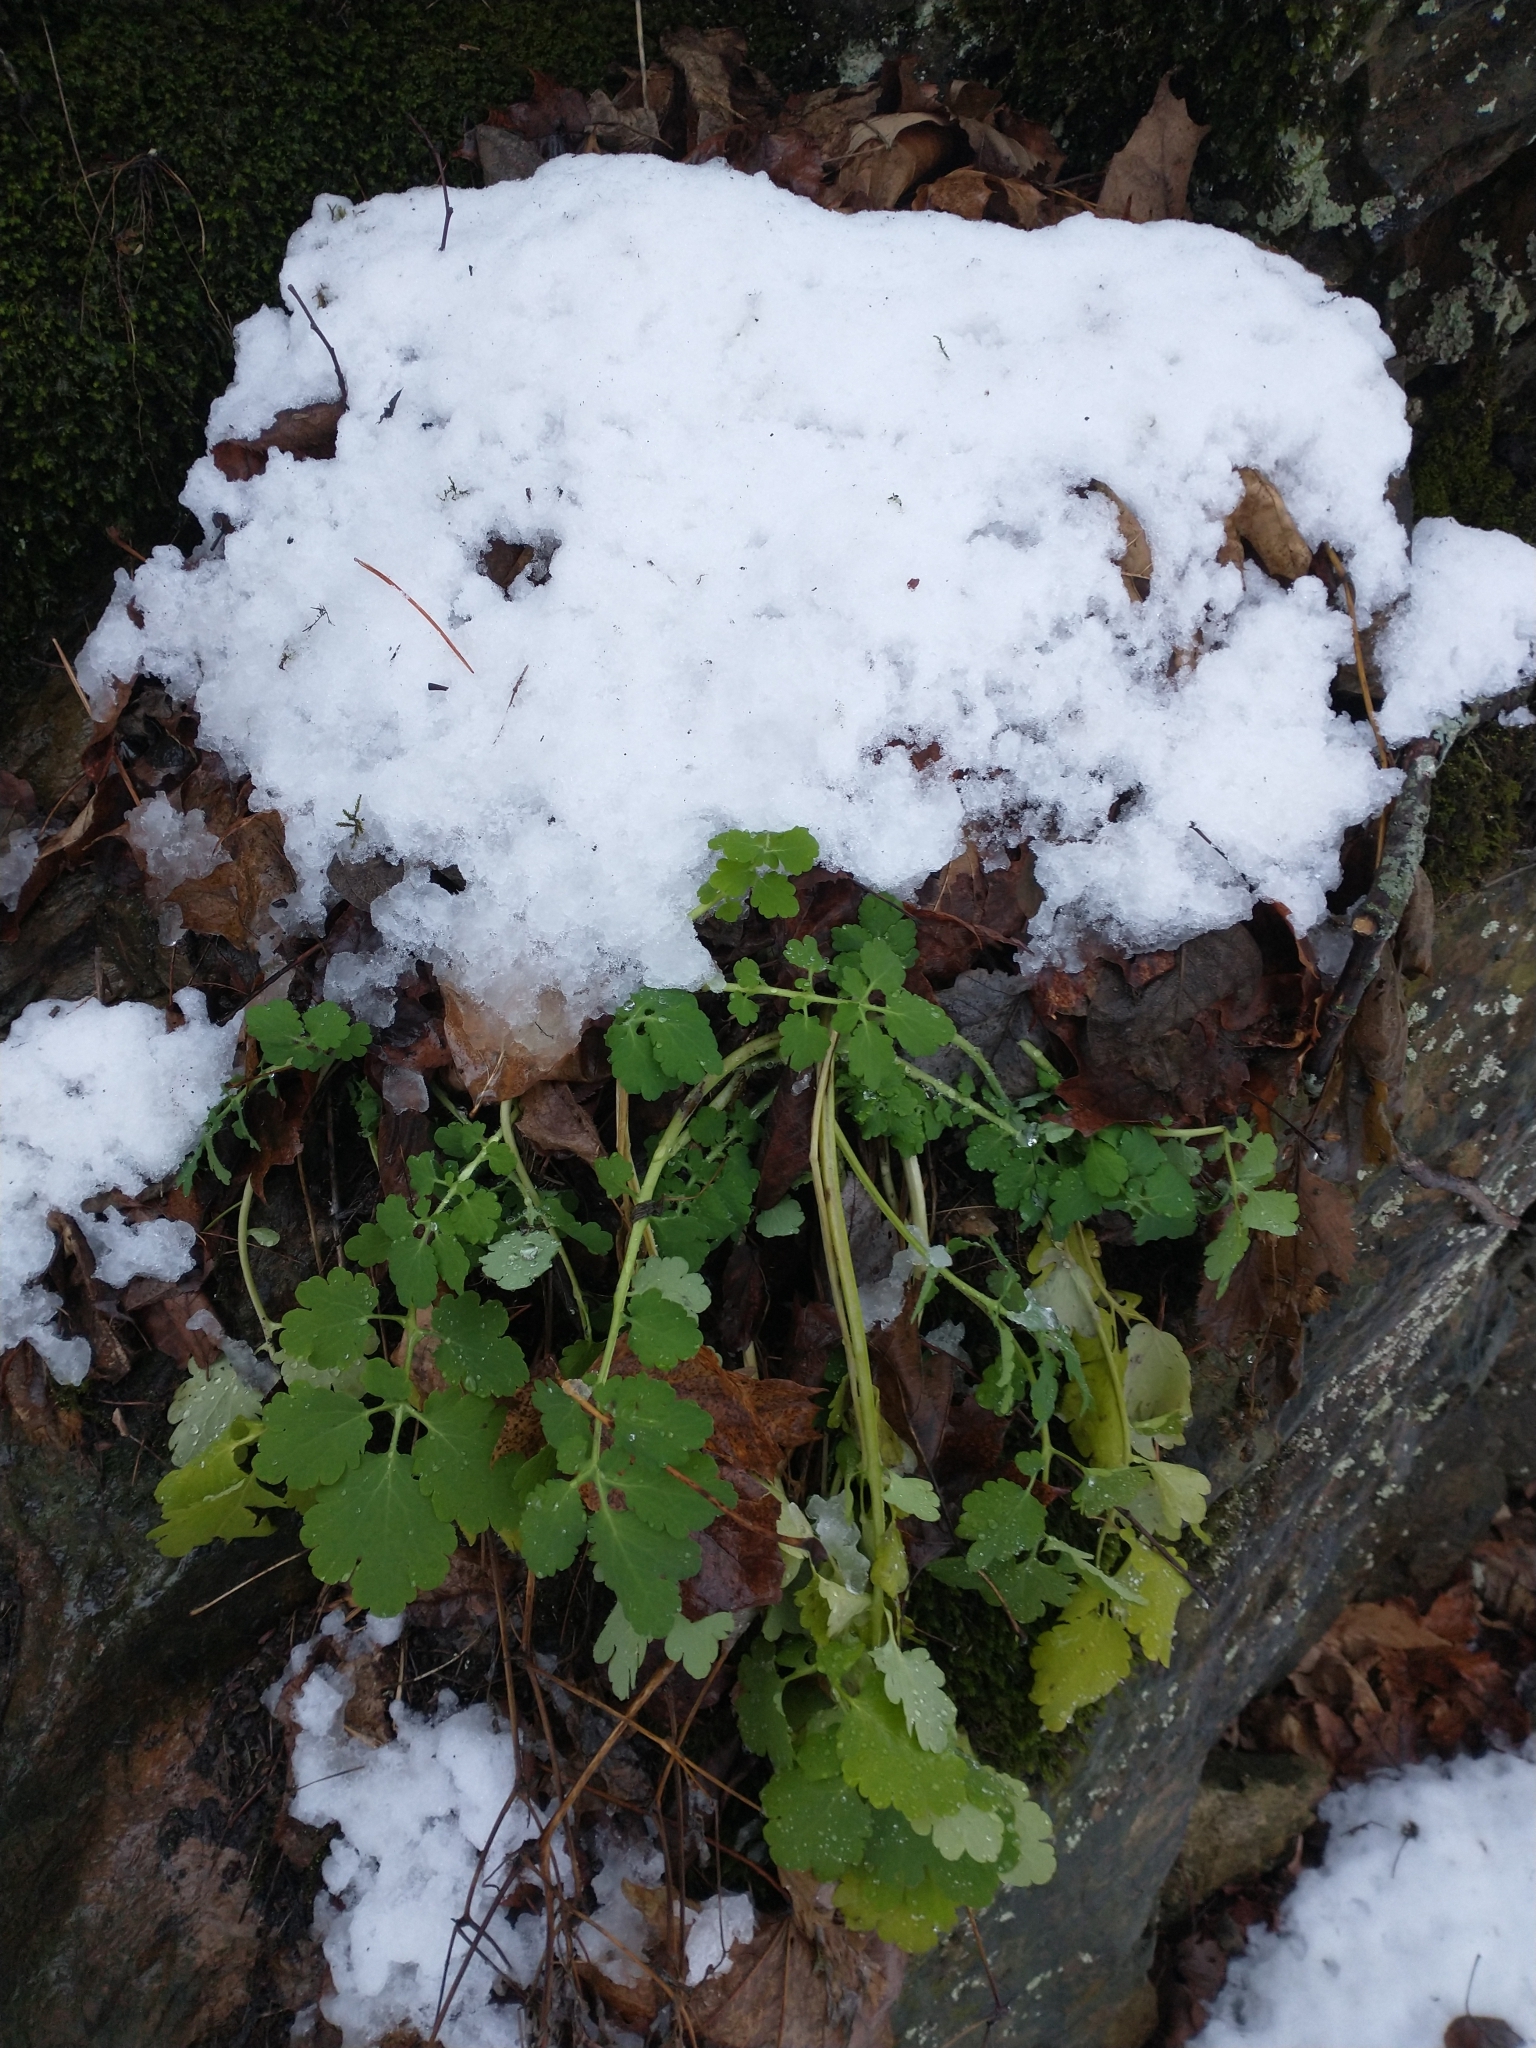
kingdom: Plantae
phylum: Tracheophyta
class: Magnoliopsida
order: Ranunculales
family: Papaveraceae
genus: Chelidonium
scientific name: Chelidonium majus
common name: Greater celandine
